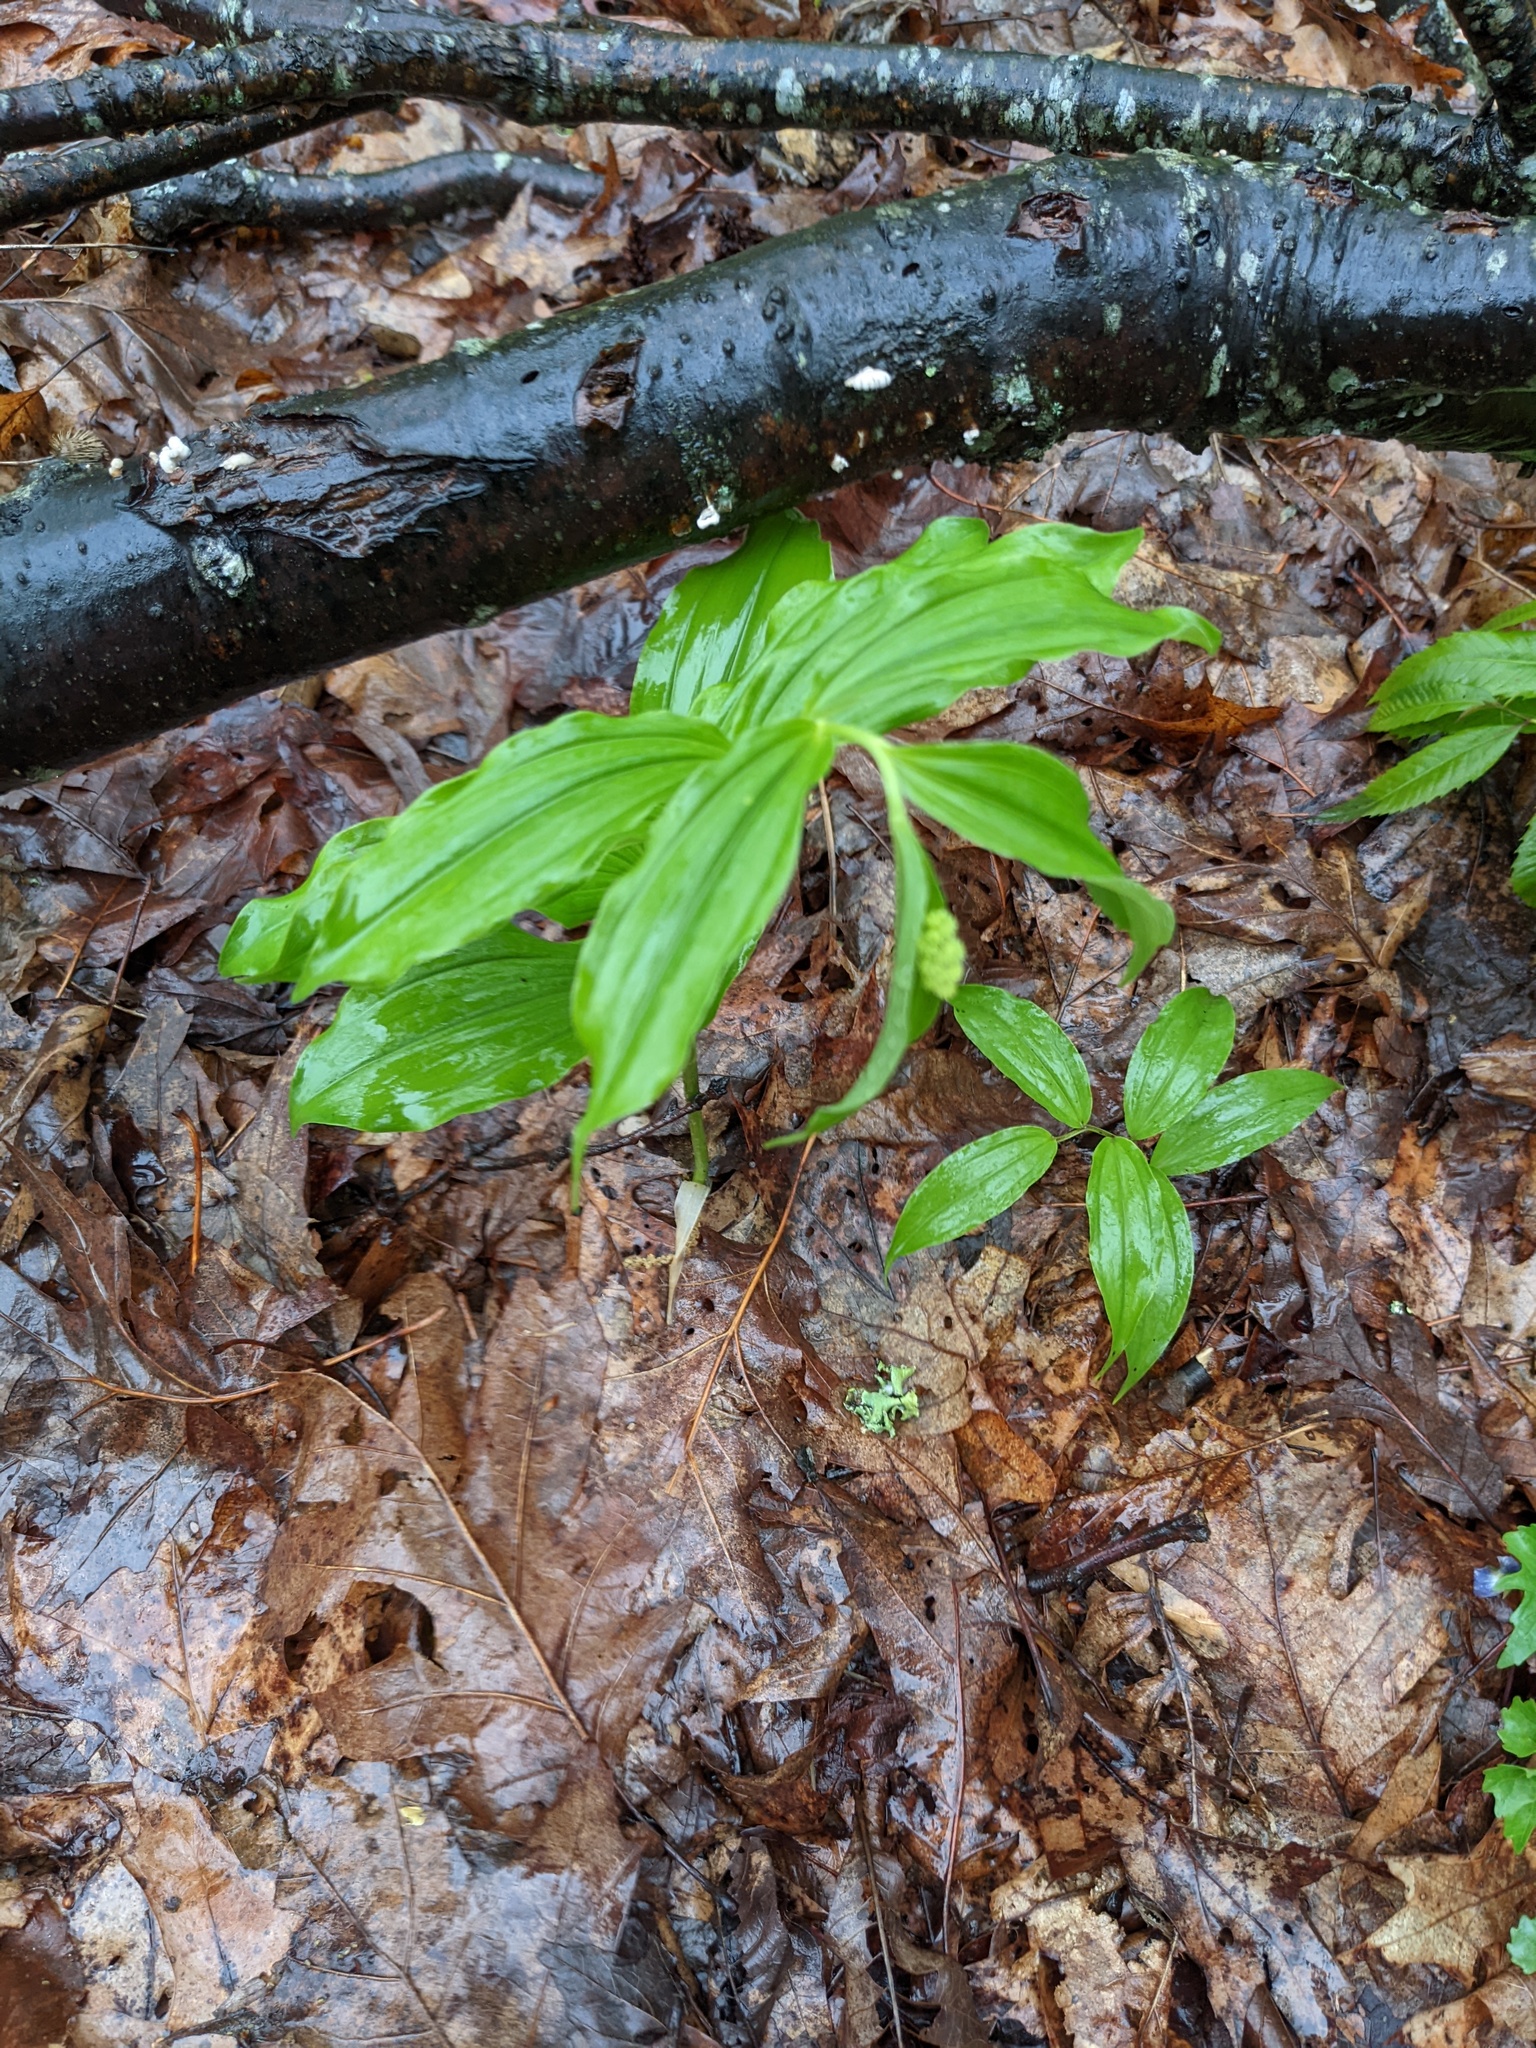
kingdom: Plantae
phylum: Tracheophyta
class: Liliopsida
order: Asparagales
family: Asparagaceae
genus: Maianthemum
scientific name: Maianthemum racemosum
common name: False spikenard
